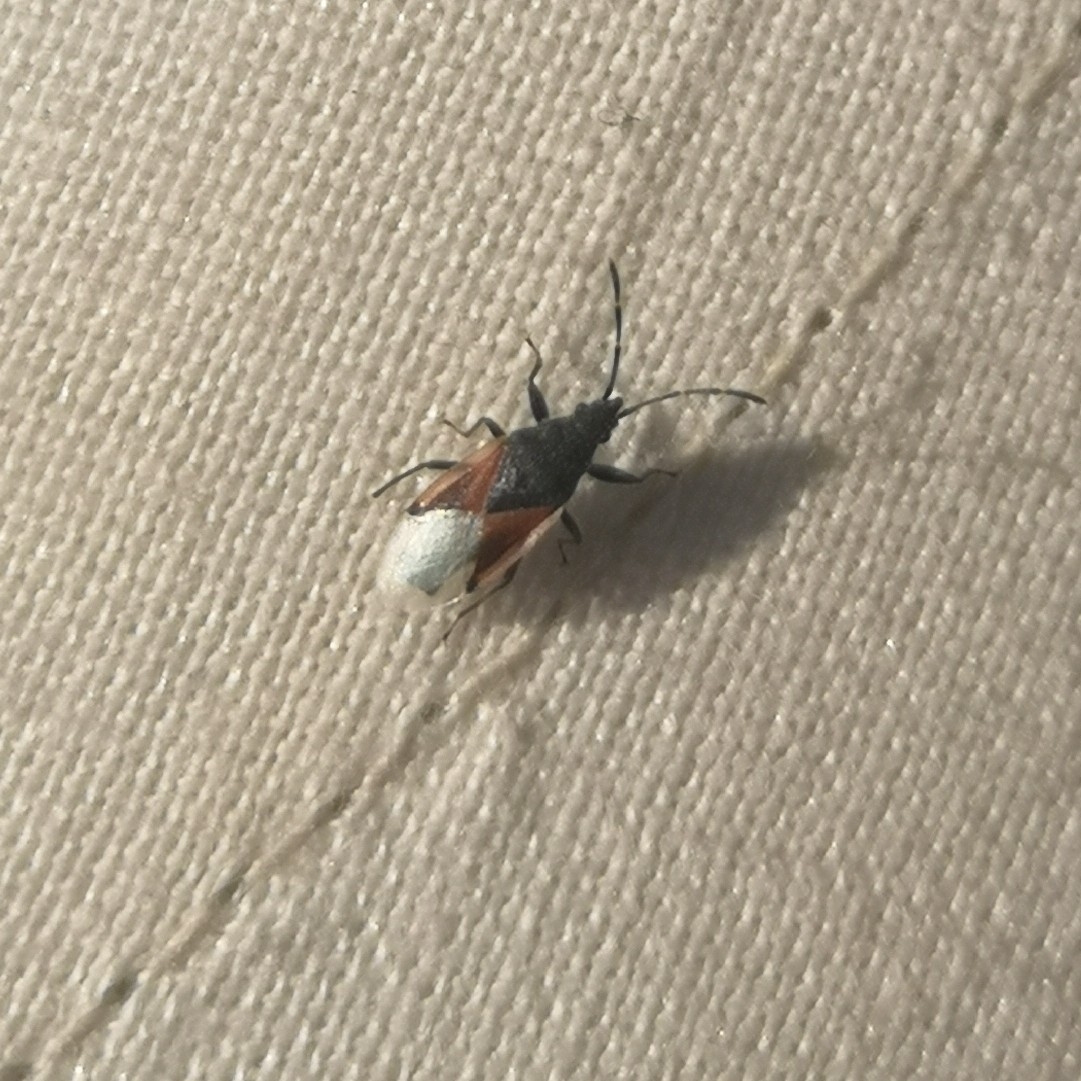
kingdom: Animalia
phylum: Arthropoda
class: Insecta
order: Hemiptera
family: Oxycarenidae
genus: Oxycarenus
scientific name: Oxycarenus lavaterae
